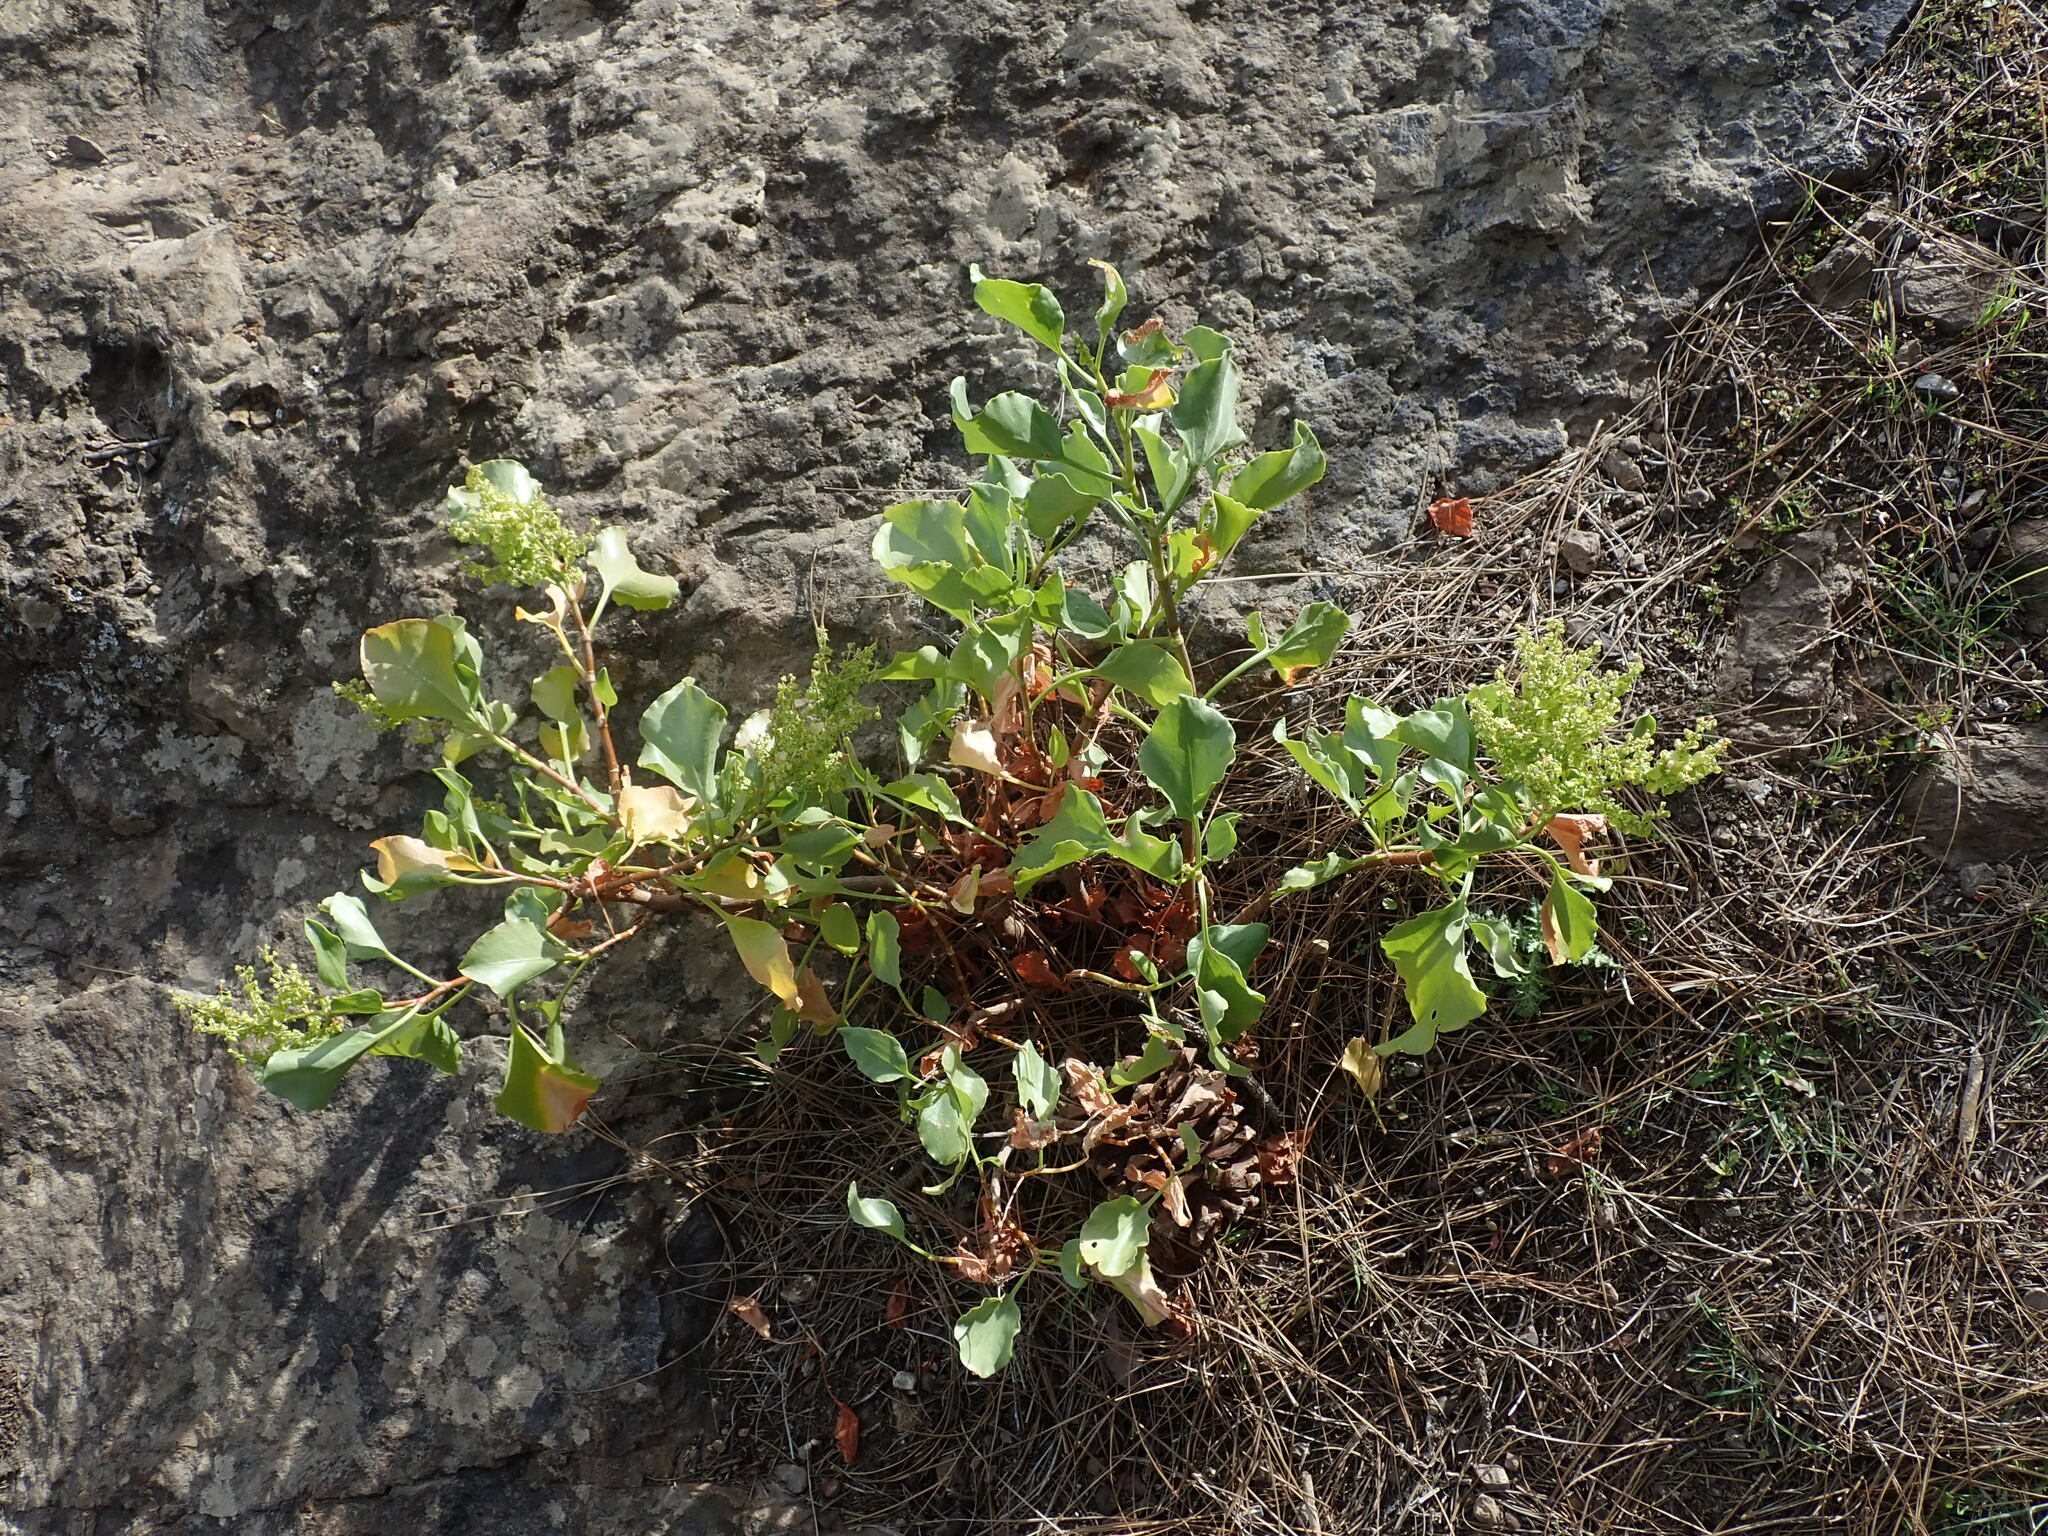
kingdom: Plantae
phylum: Tracheophyta
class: Magnoliopsida
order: Caryophyllales
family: Polygonaceae
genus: Rumex
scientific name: Rumex lunaria
